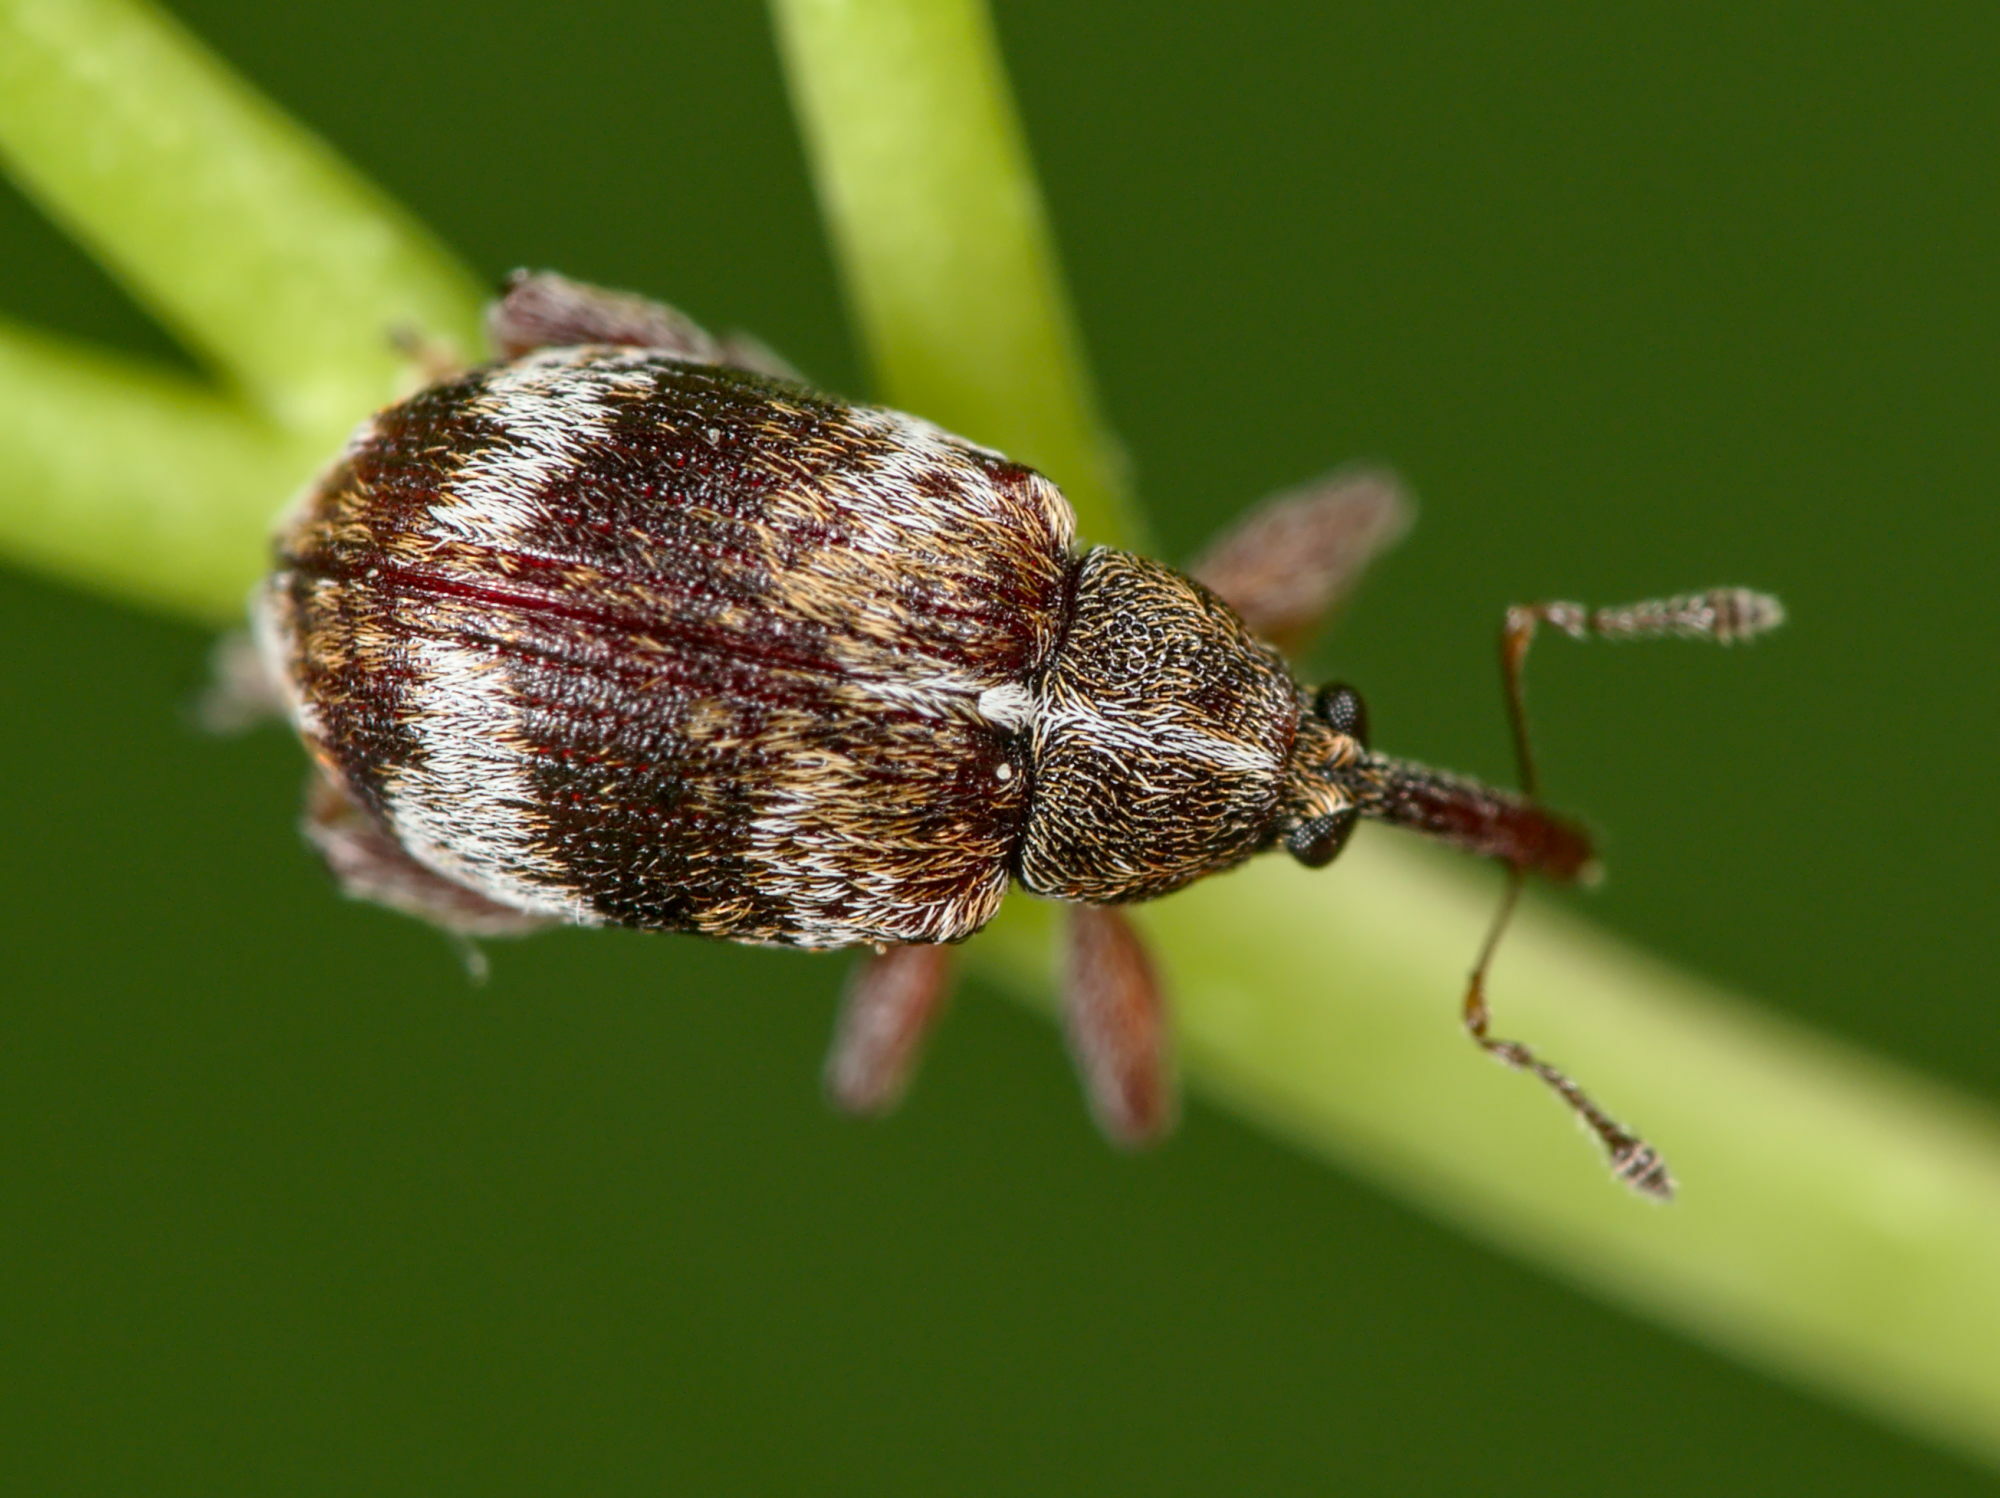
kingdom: Animalia
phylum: Arthropoda
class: Insecta
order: Coleoptera
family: Curculionidae
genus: Anthonomus
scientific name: Anthonomus pedicularius
